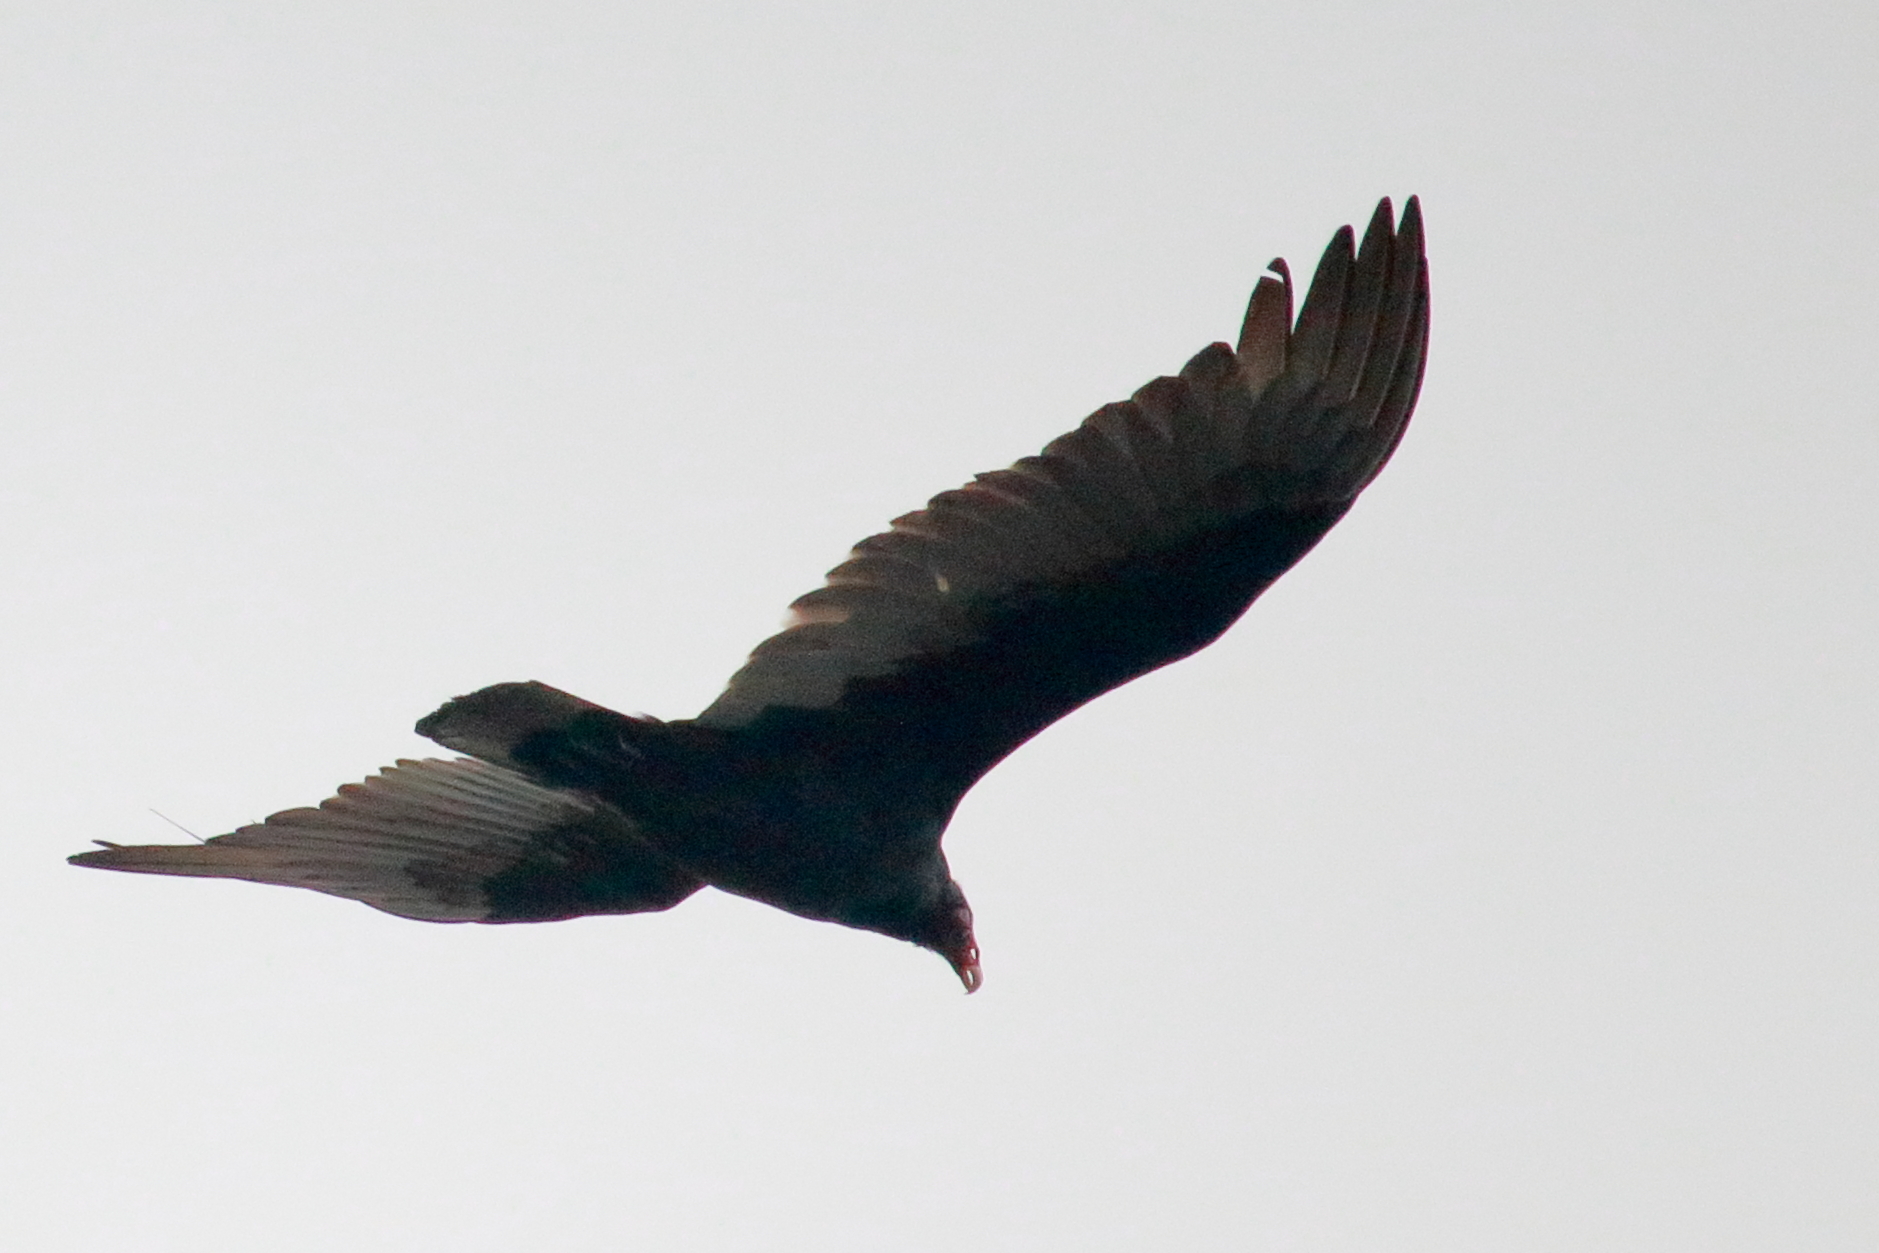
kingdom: Animalia
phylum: Chordata
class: Aves
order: Accipitriformes
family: Cathartidae
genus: Cathartes
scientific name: Cathartes aura
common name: Turkey vulture
